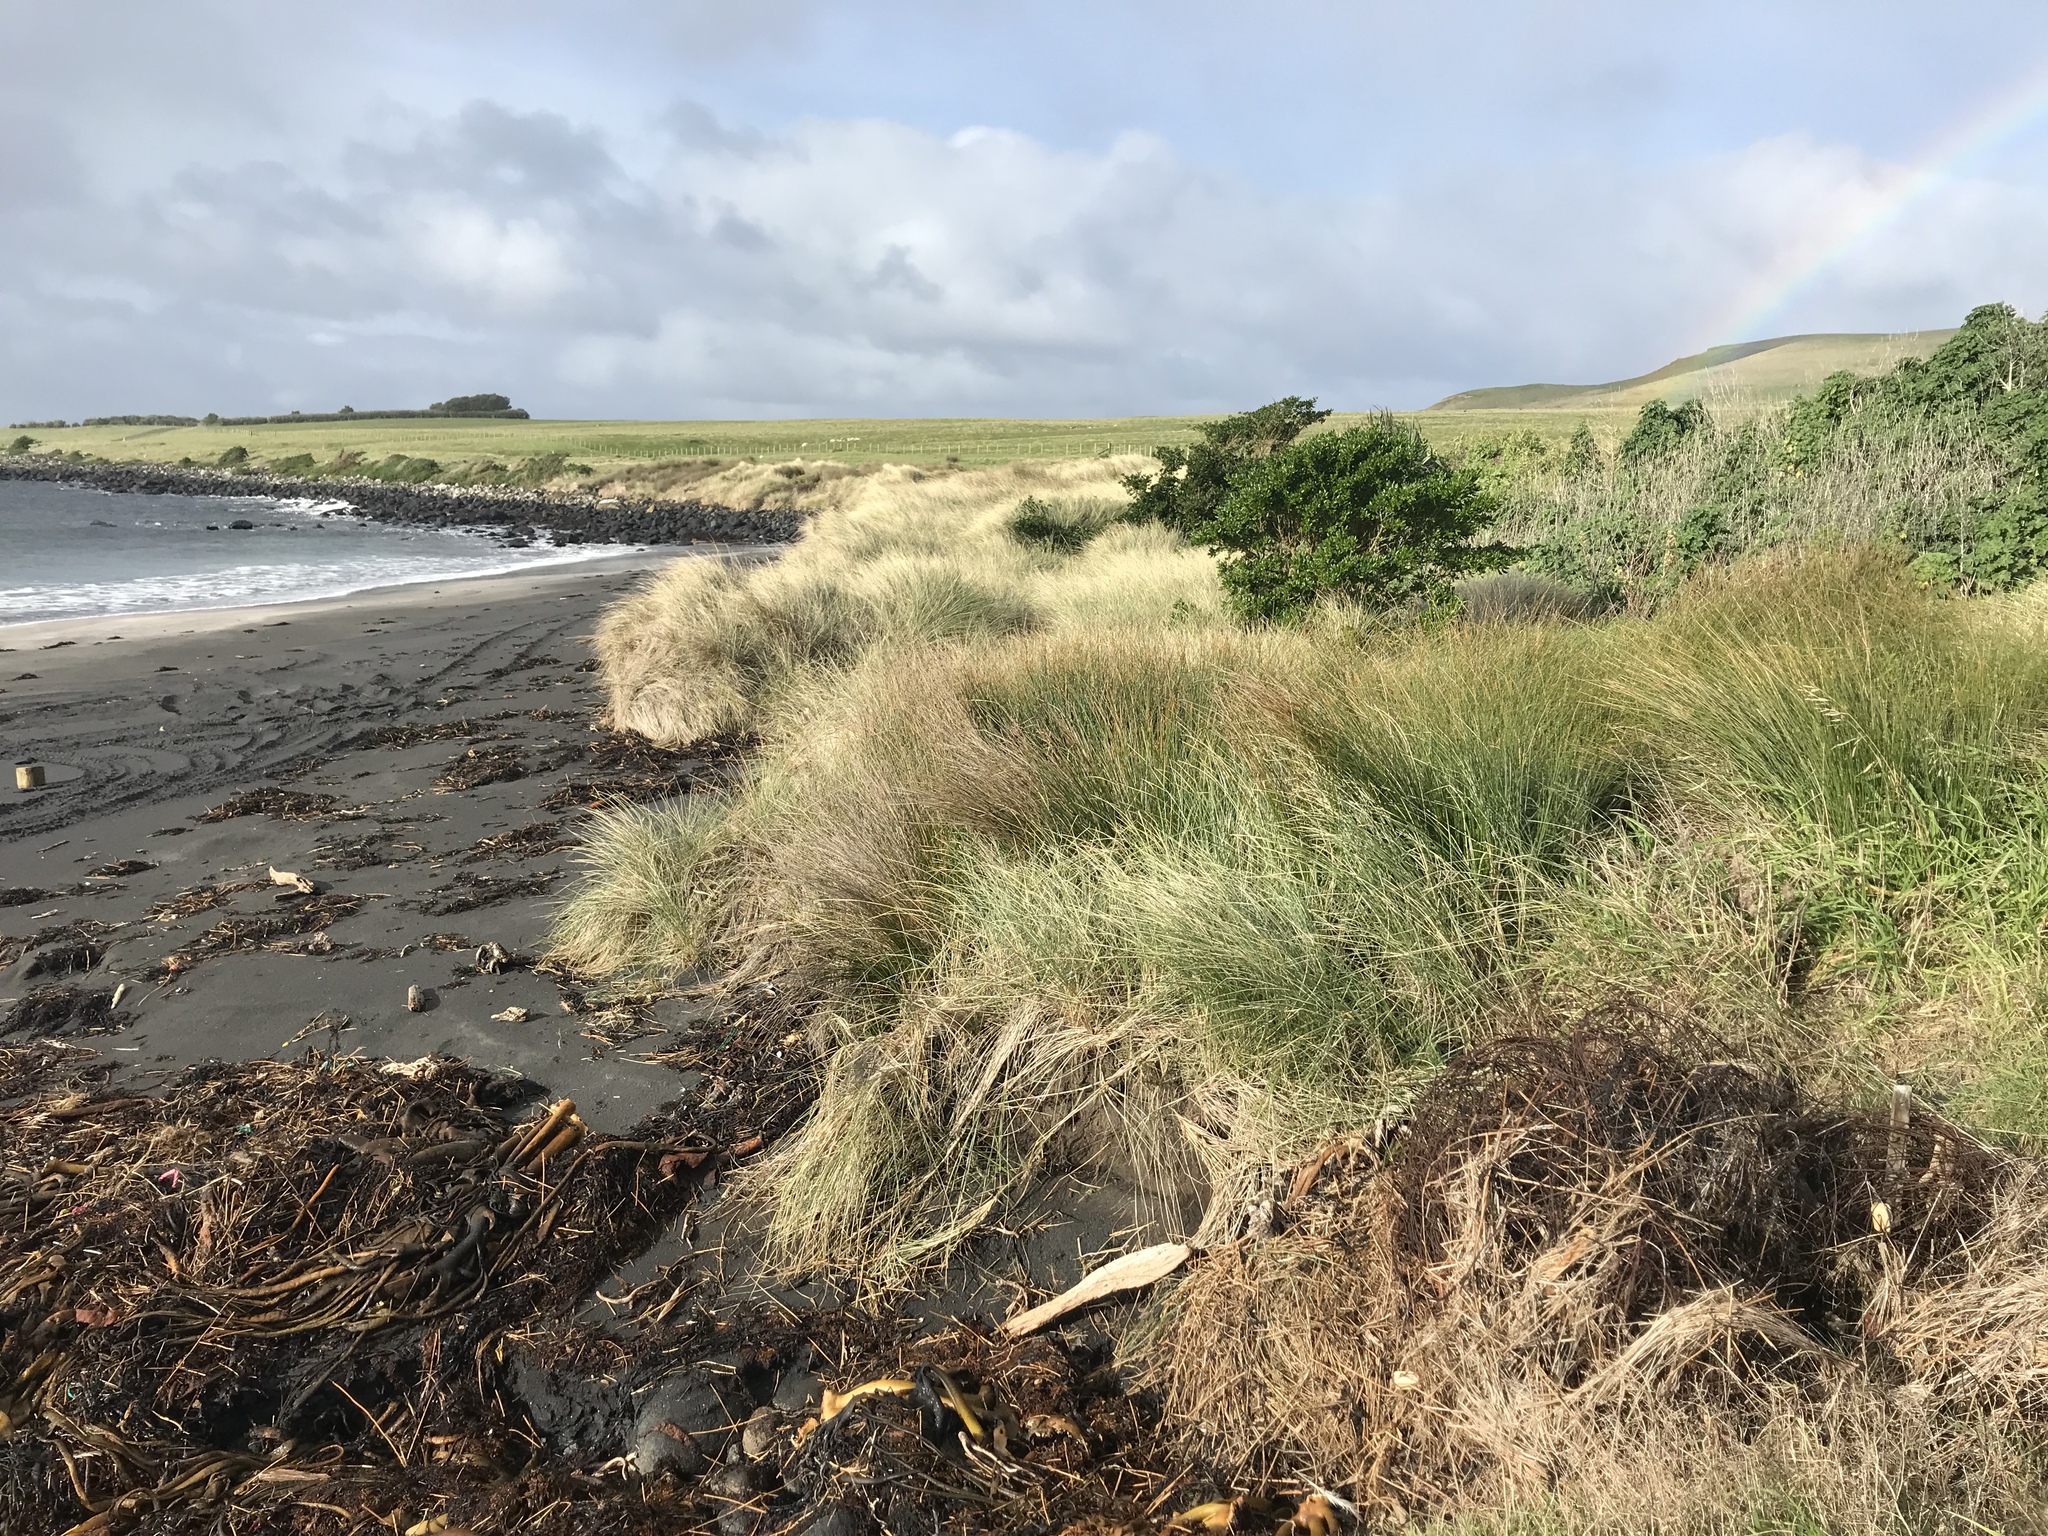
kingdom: Plantae
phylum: Tracheophyta
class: Liliopsida
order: Poales
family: Poaceae
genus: Calamagrostis
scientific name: Calamagrostis arenaria
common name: European beachgrass
